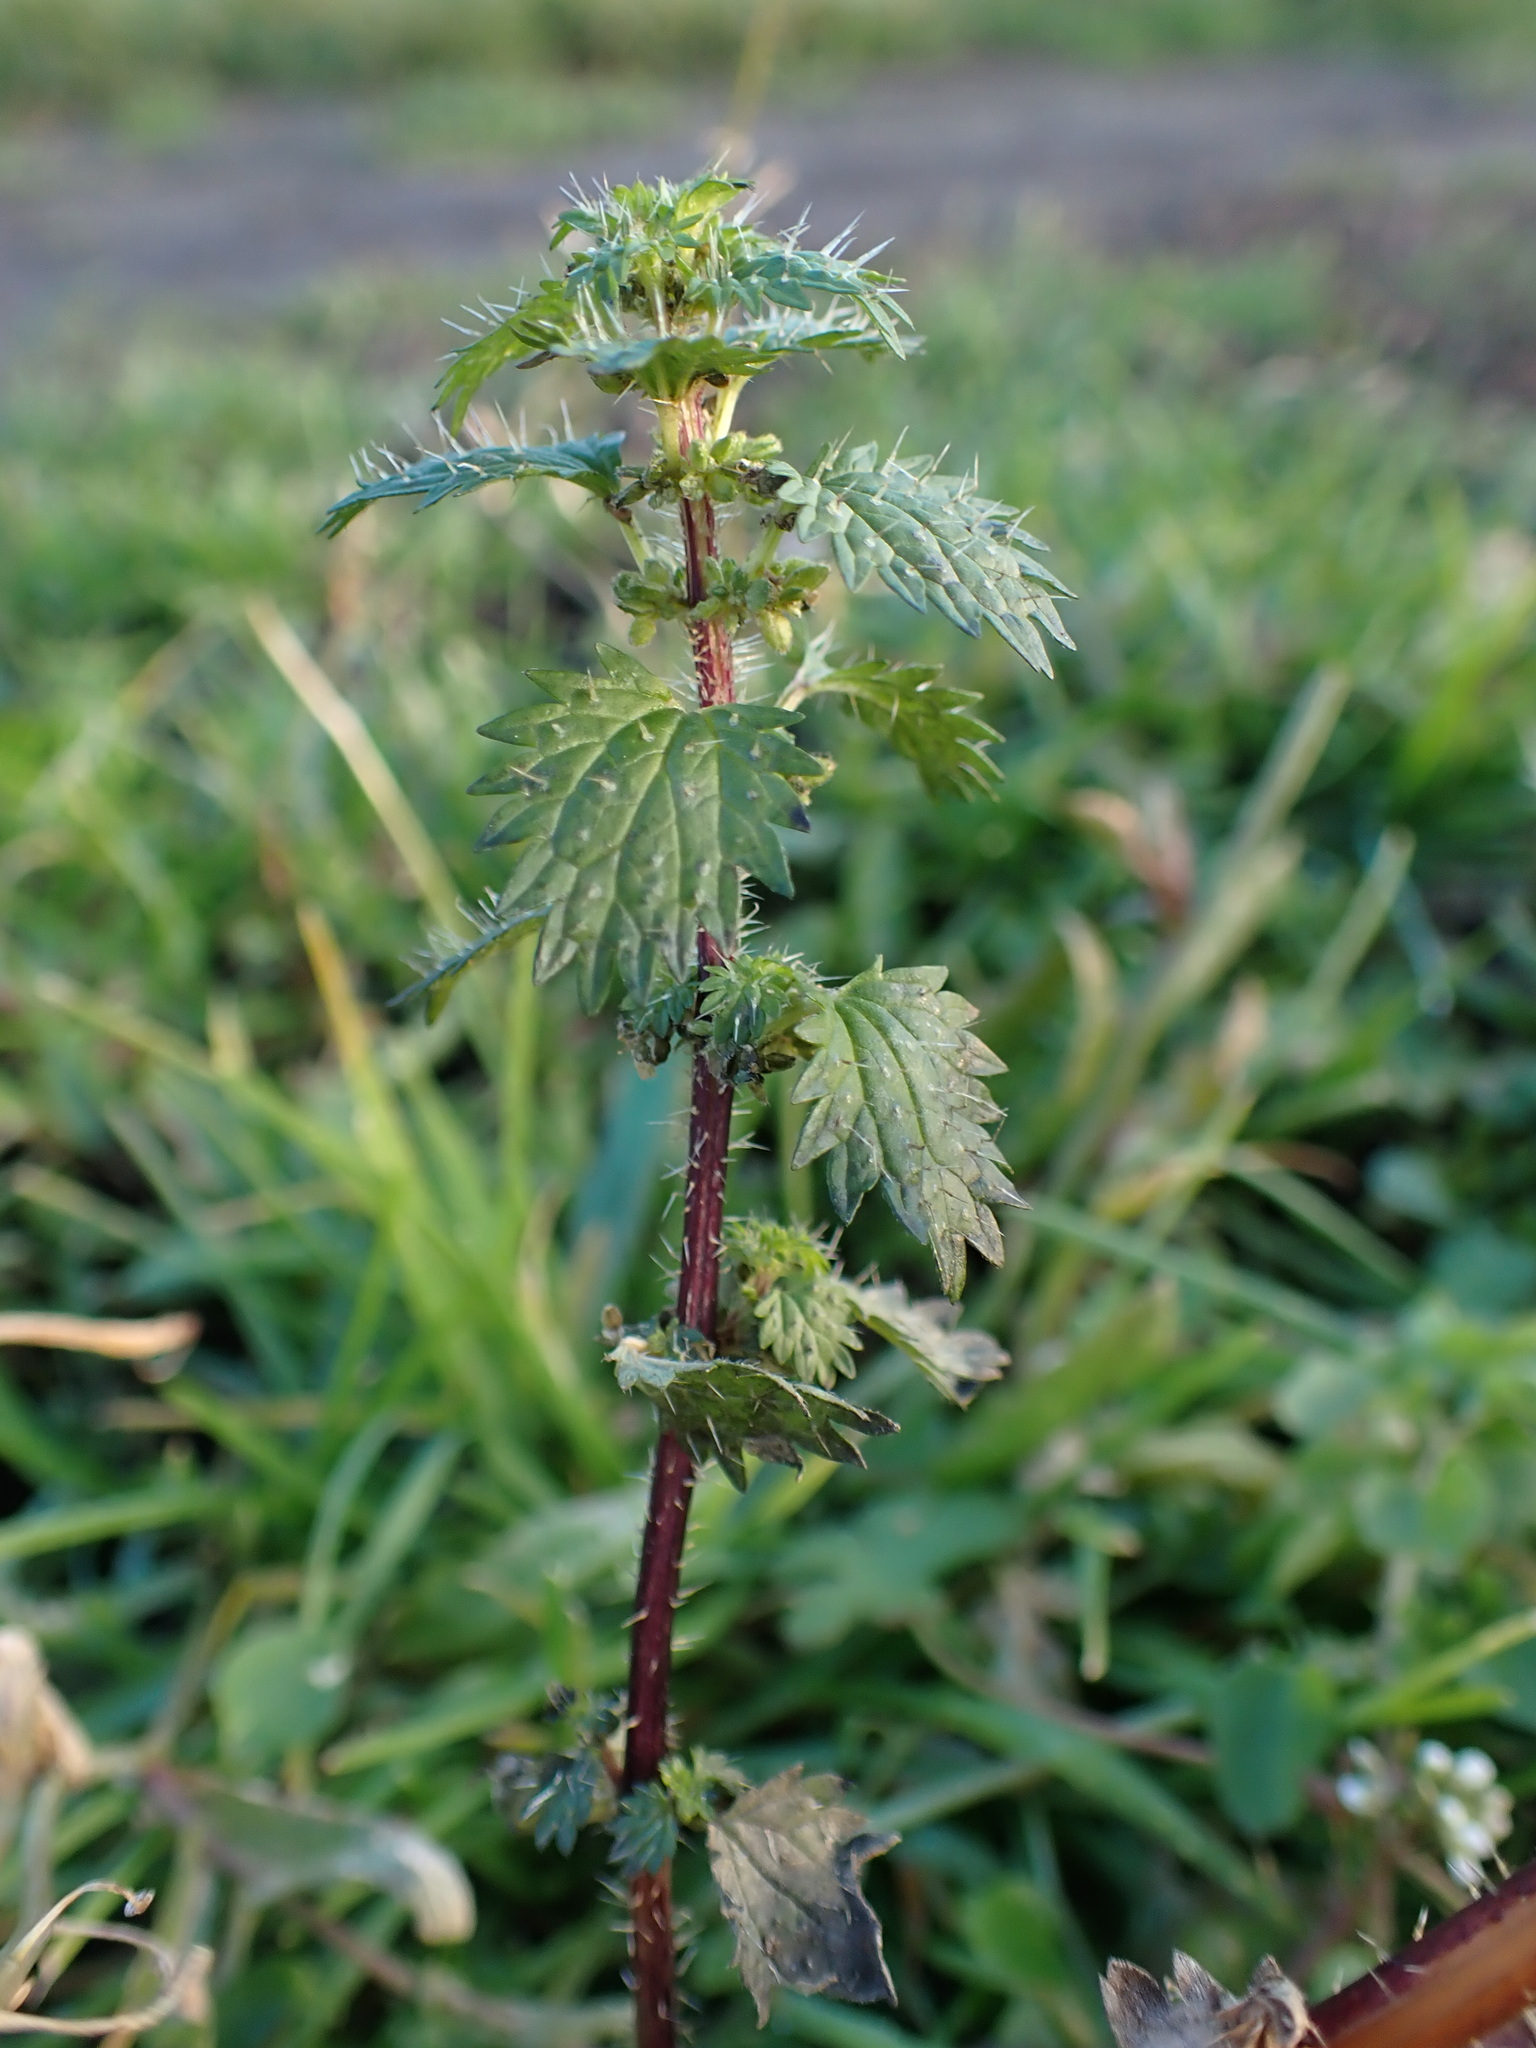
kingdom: Plantae
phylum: Tracheophyta
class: Magnoliopsida
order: Rosales
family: Urticaceae
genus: Urtica
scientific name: Urtica urens
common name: Dwarf nettle
